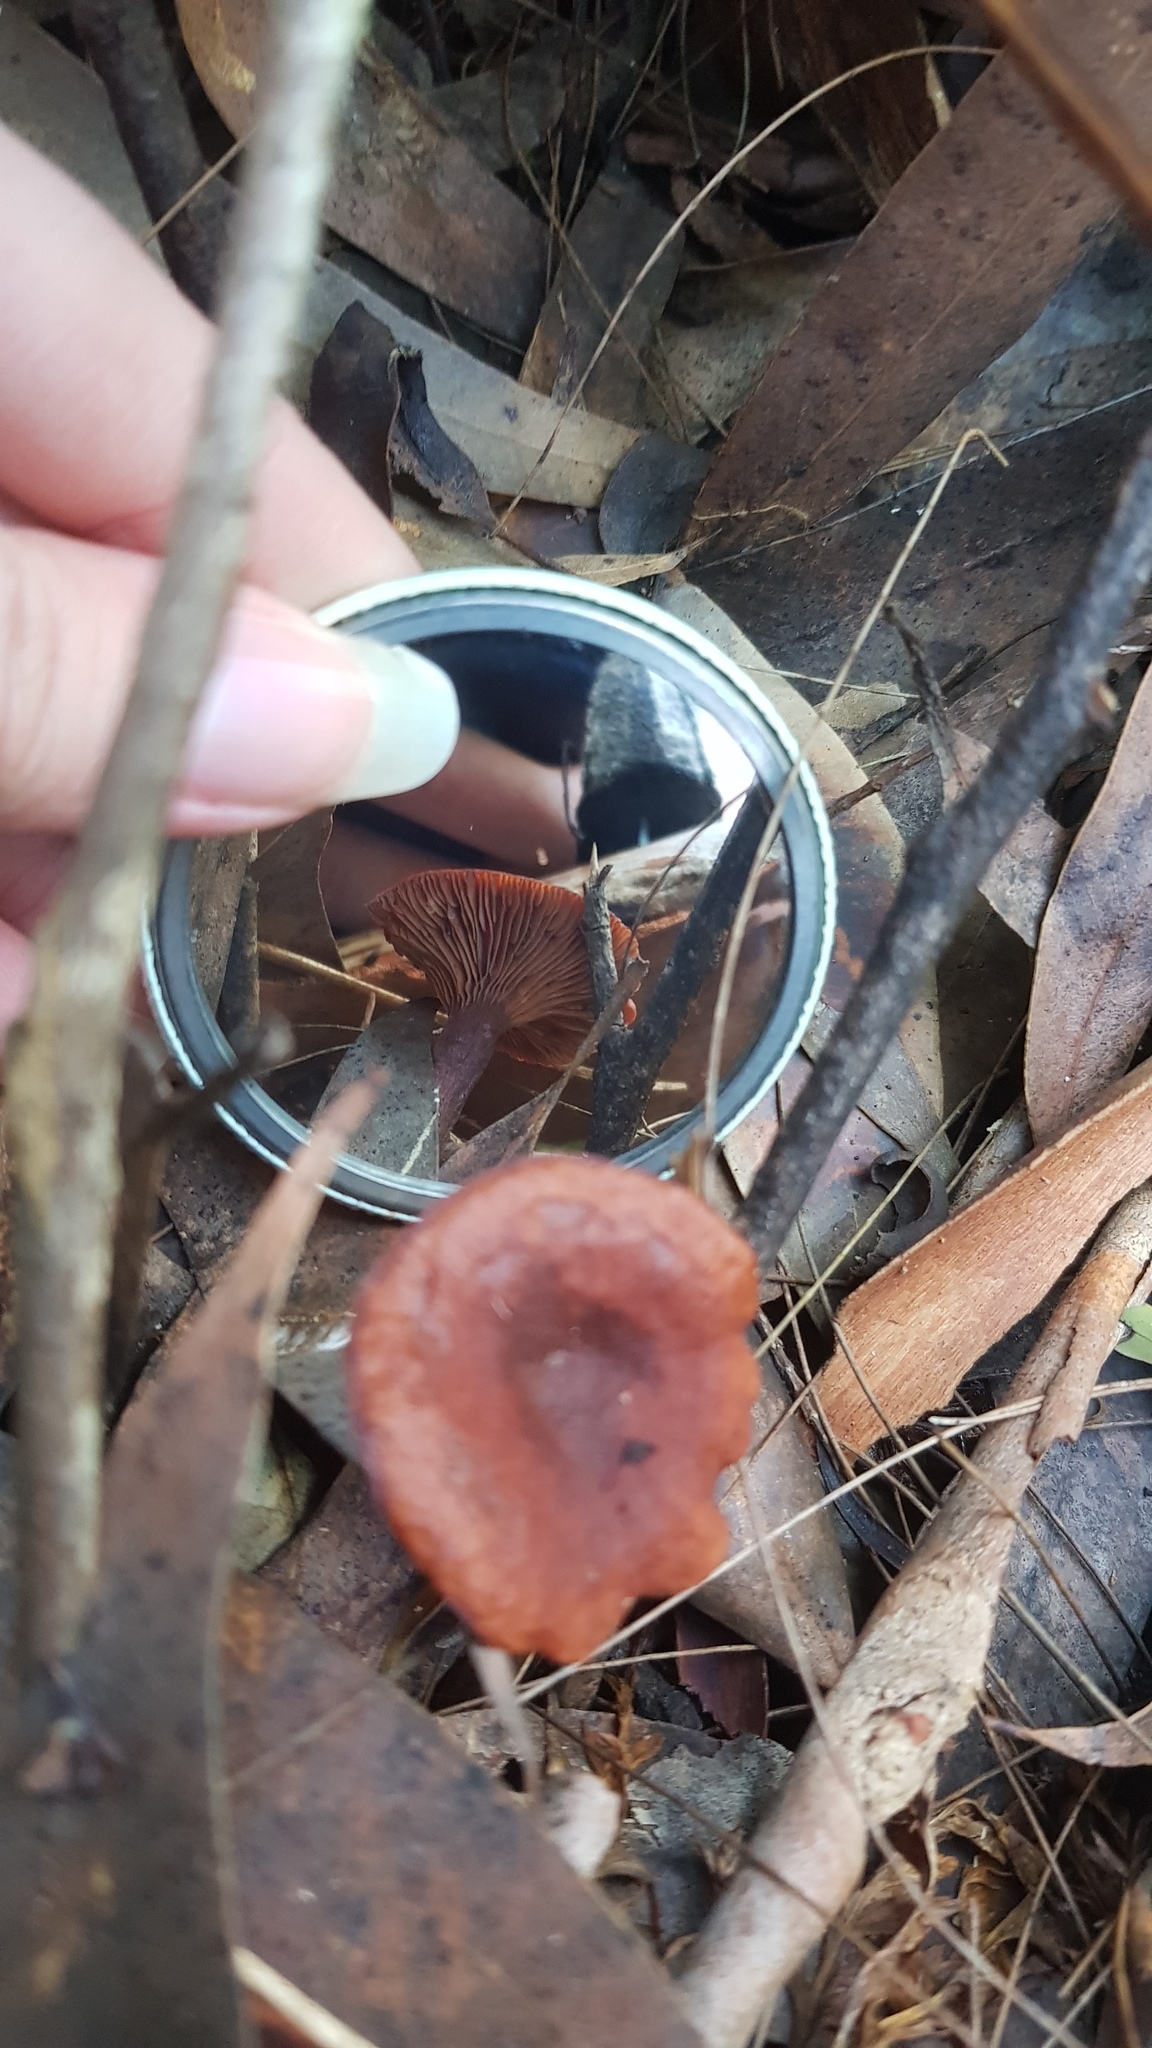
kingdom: Fungi
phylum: Basidiomycota
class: Agaricomycetes
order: Russulales
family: Russulaceae
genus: Lactarius
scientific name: Lactarius eucalypti
